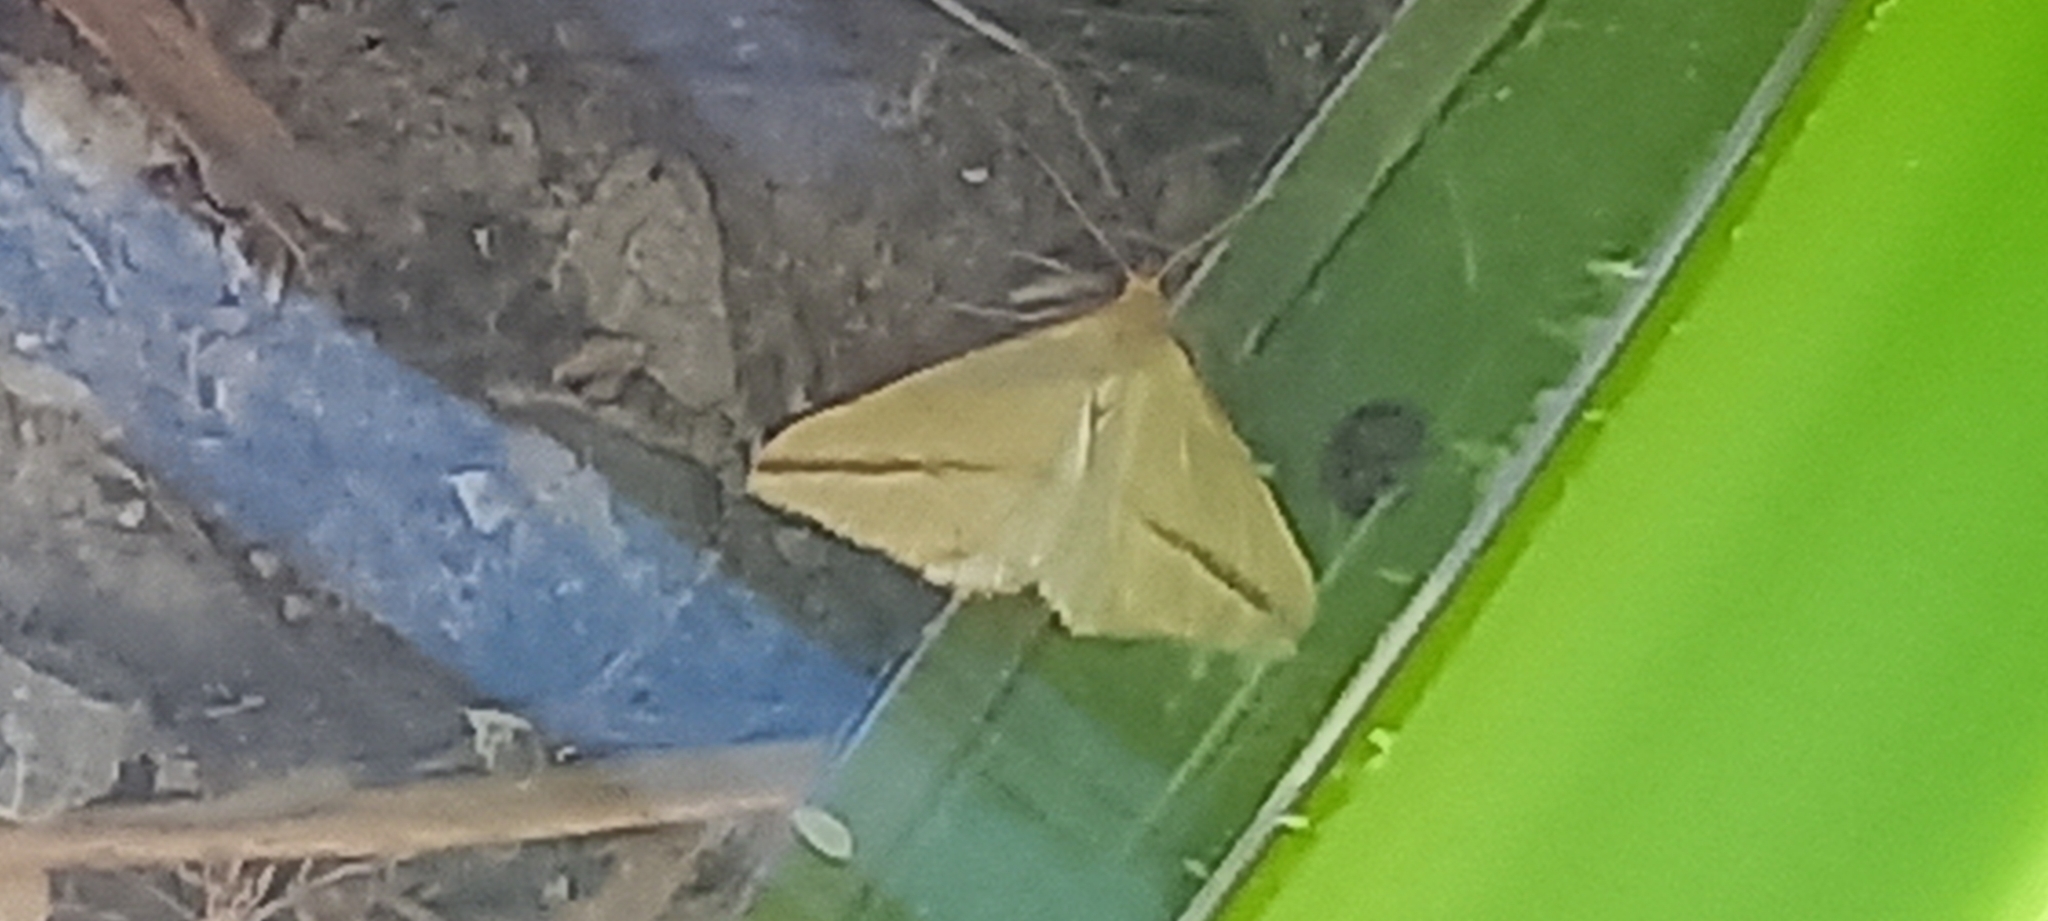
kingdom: Animalia
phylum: Arthropoda
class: Insecta
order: Lepidoptera
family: Geometridae
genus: Rhodometra
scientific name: Rhodometra sacraria
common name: Vestal
